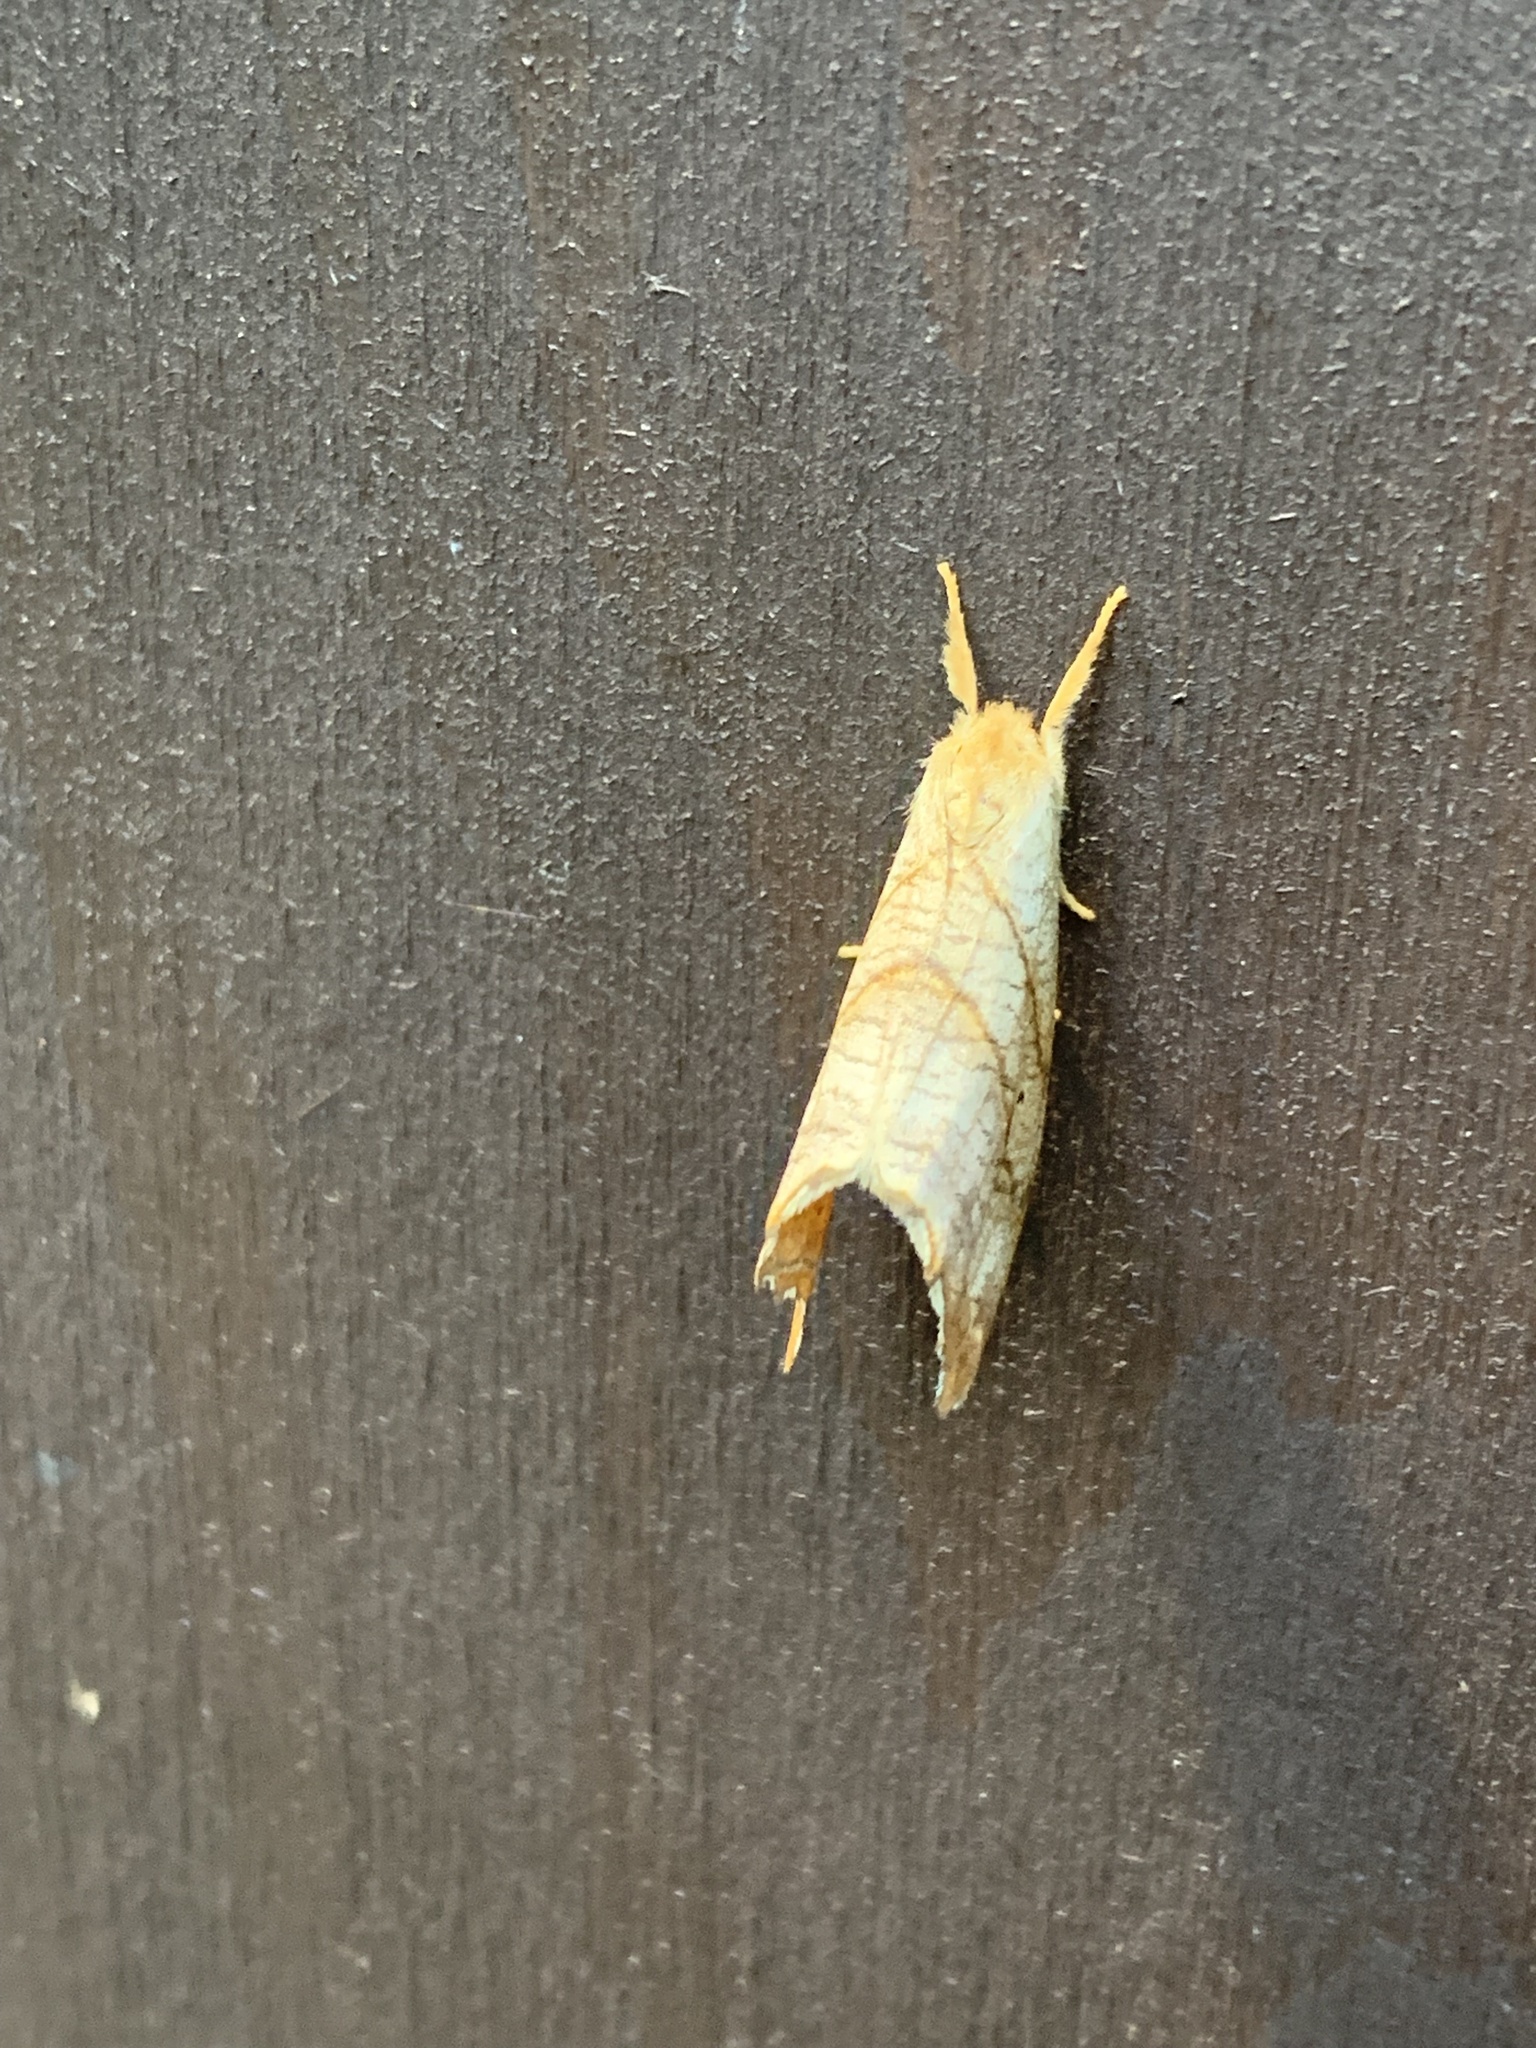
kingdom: Animalia
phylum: Arthropoda
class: Insecta
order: Lepidoptera
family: Drepanidae
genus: Falcaria
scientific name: Falcaria bilineata
